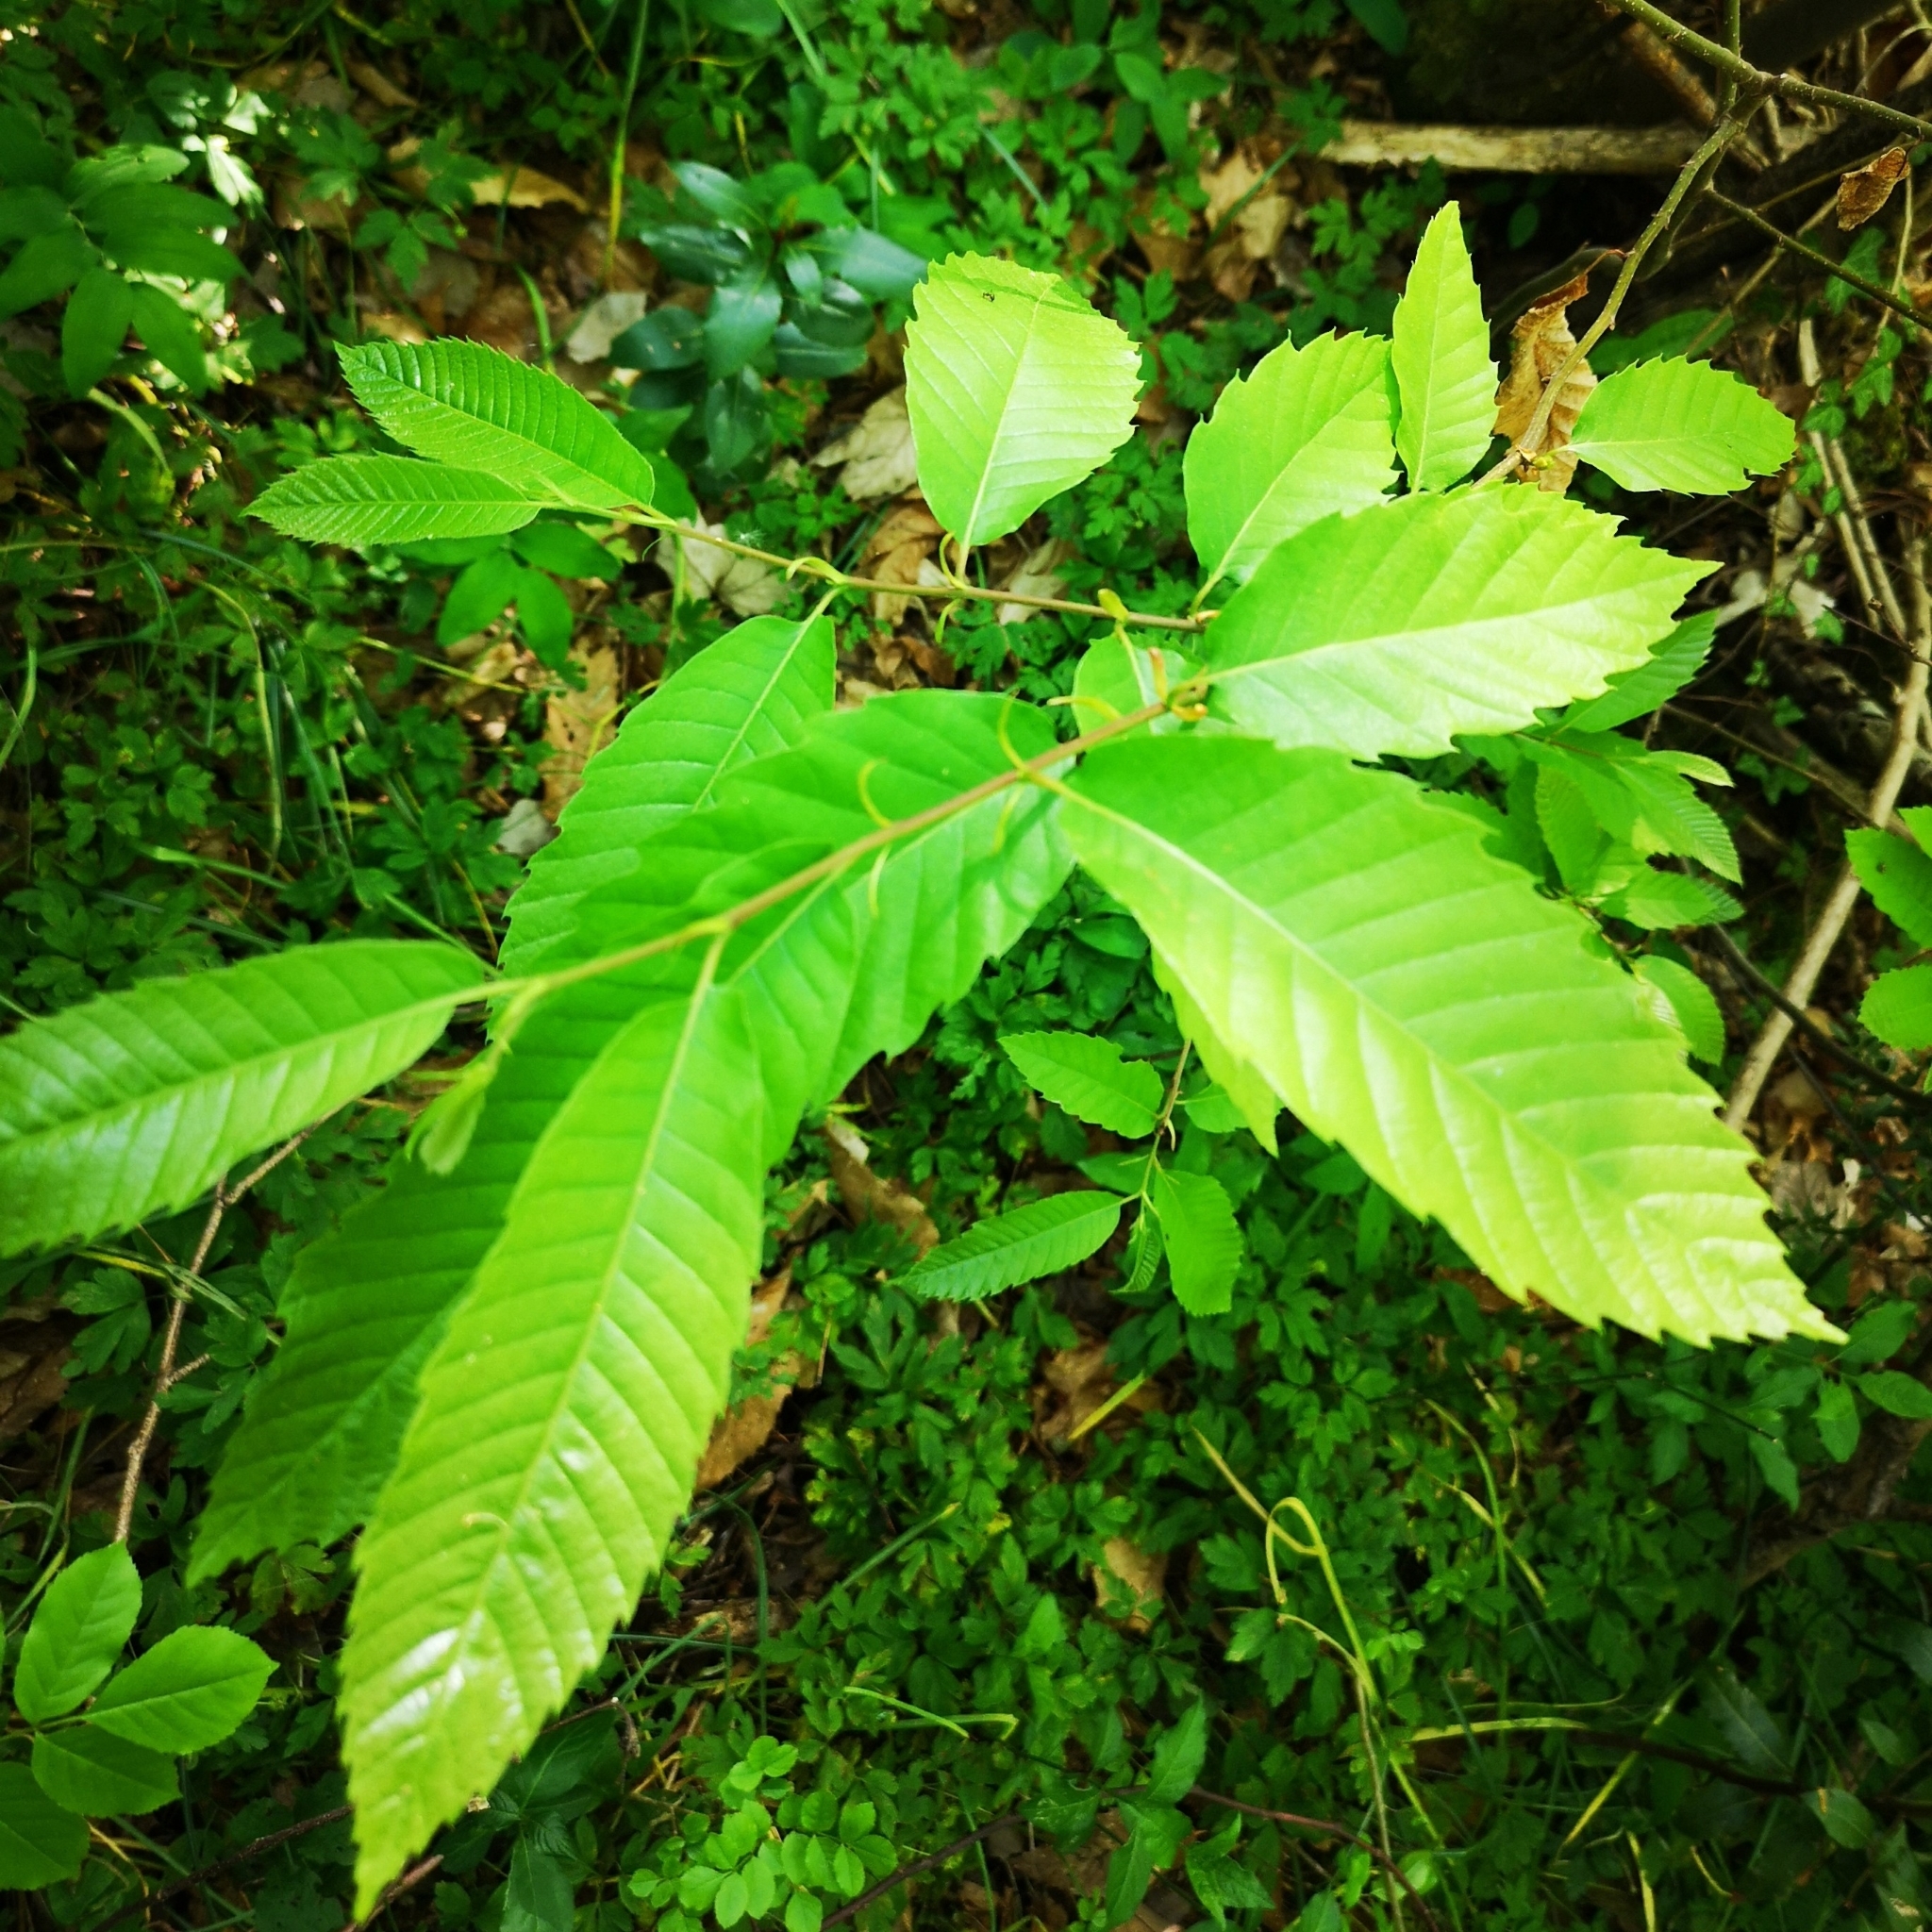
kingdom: Plantae
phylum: Tracheophyta
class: Magnoliopsida
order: Fagales
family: Fagaceae
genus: Castanea
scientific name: Castanea sativa
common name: Sweet chestnut
